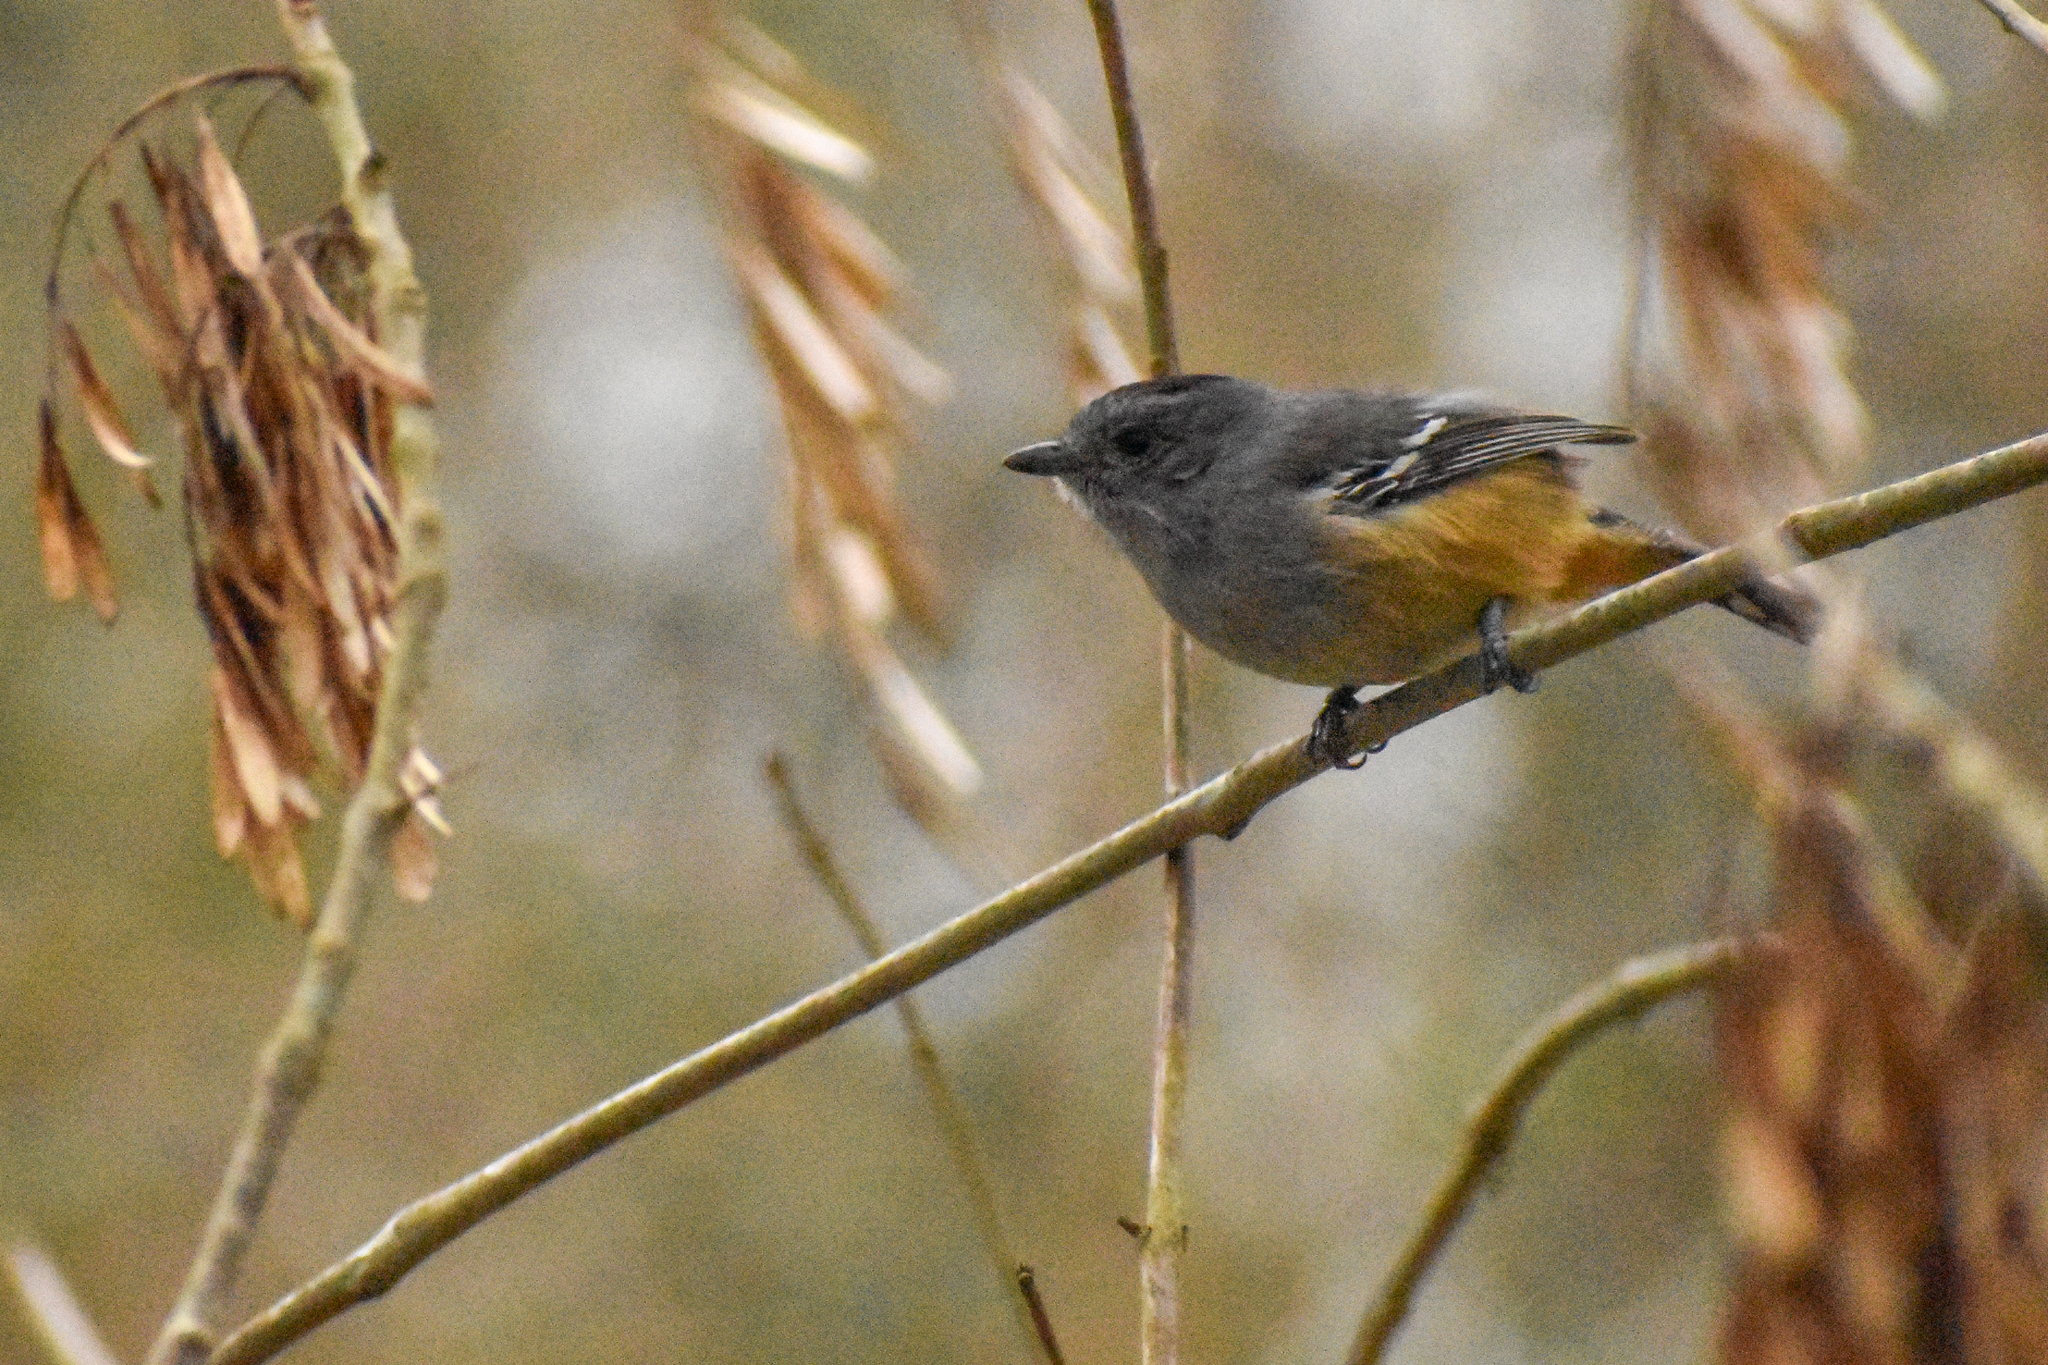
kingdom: Animalia
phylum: Chordata
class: Aves
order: Passeriformes
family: Thamnophilidae
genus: Thamnophilus
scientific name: Thamnophilus caerulescens
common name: Variable antshrike
